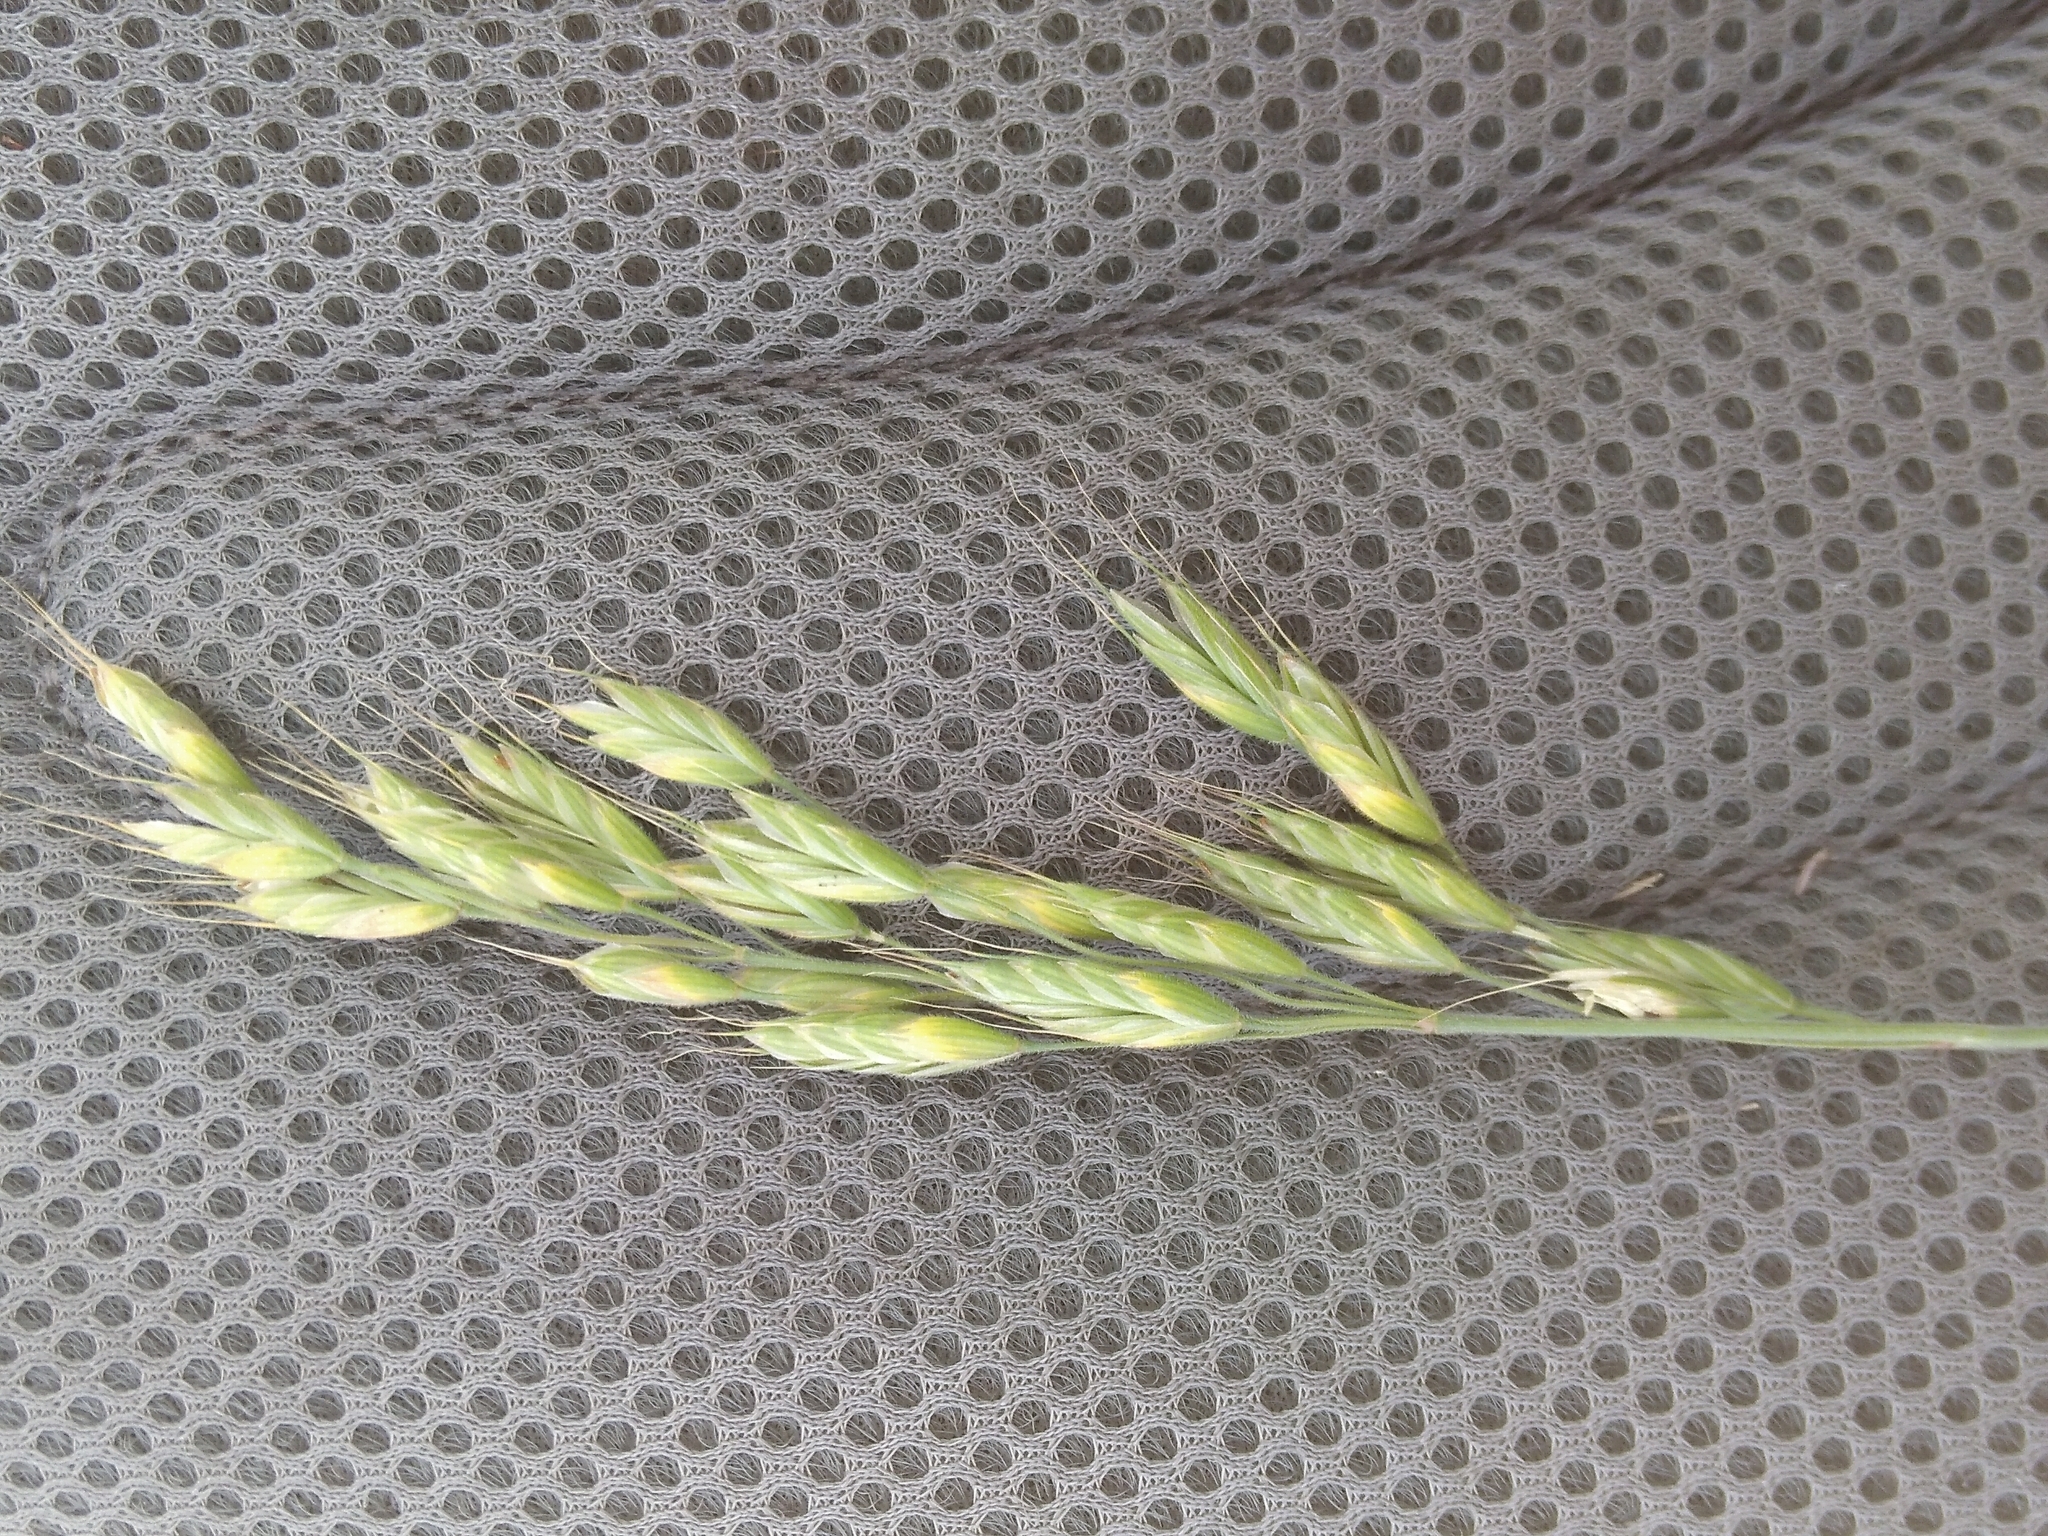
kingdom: Plantae
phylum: Tracheophyta
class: Liliopsida
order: Poales
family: Poaceae
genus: Bromus
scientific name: Bromus hordeaceus
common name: Soft brome
